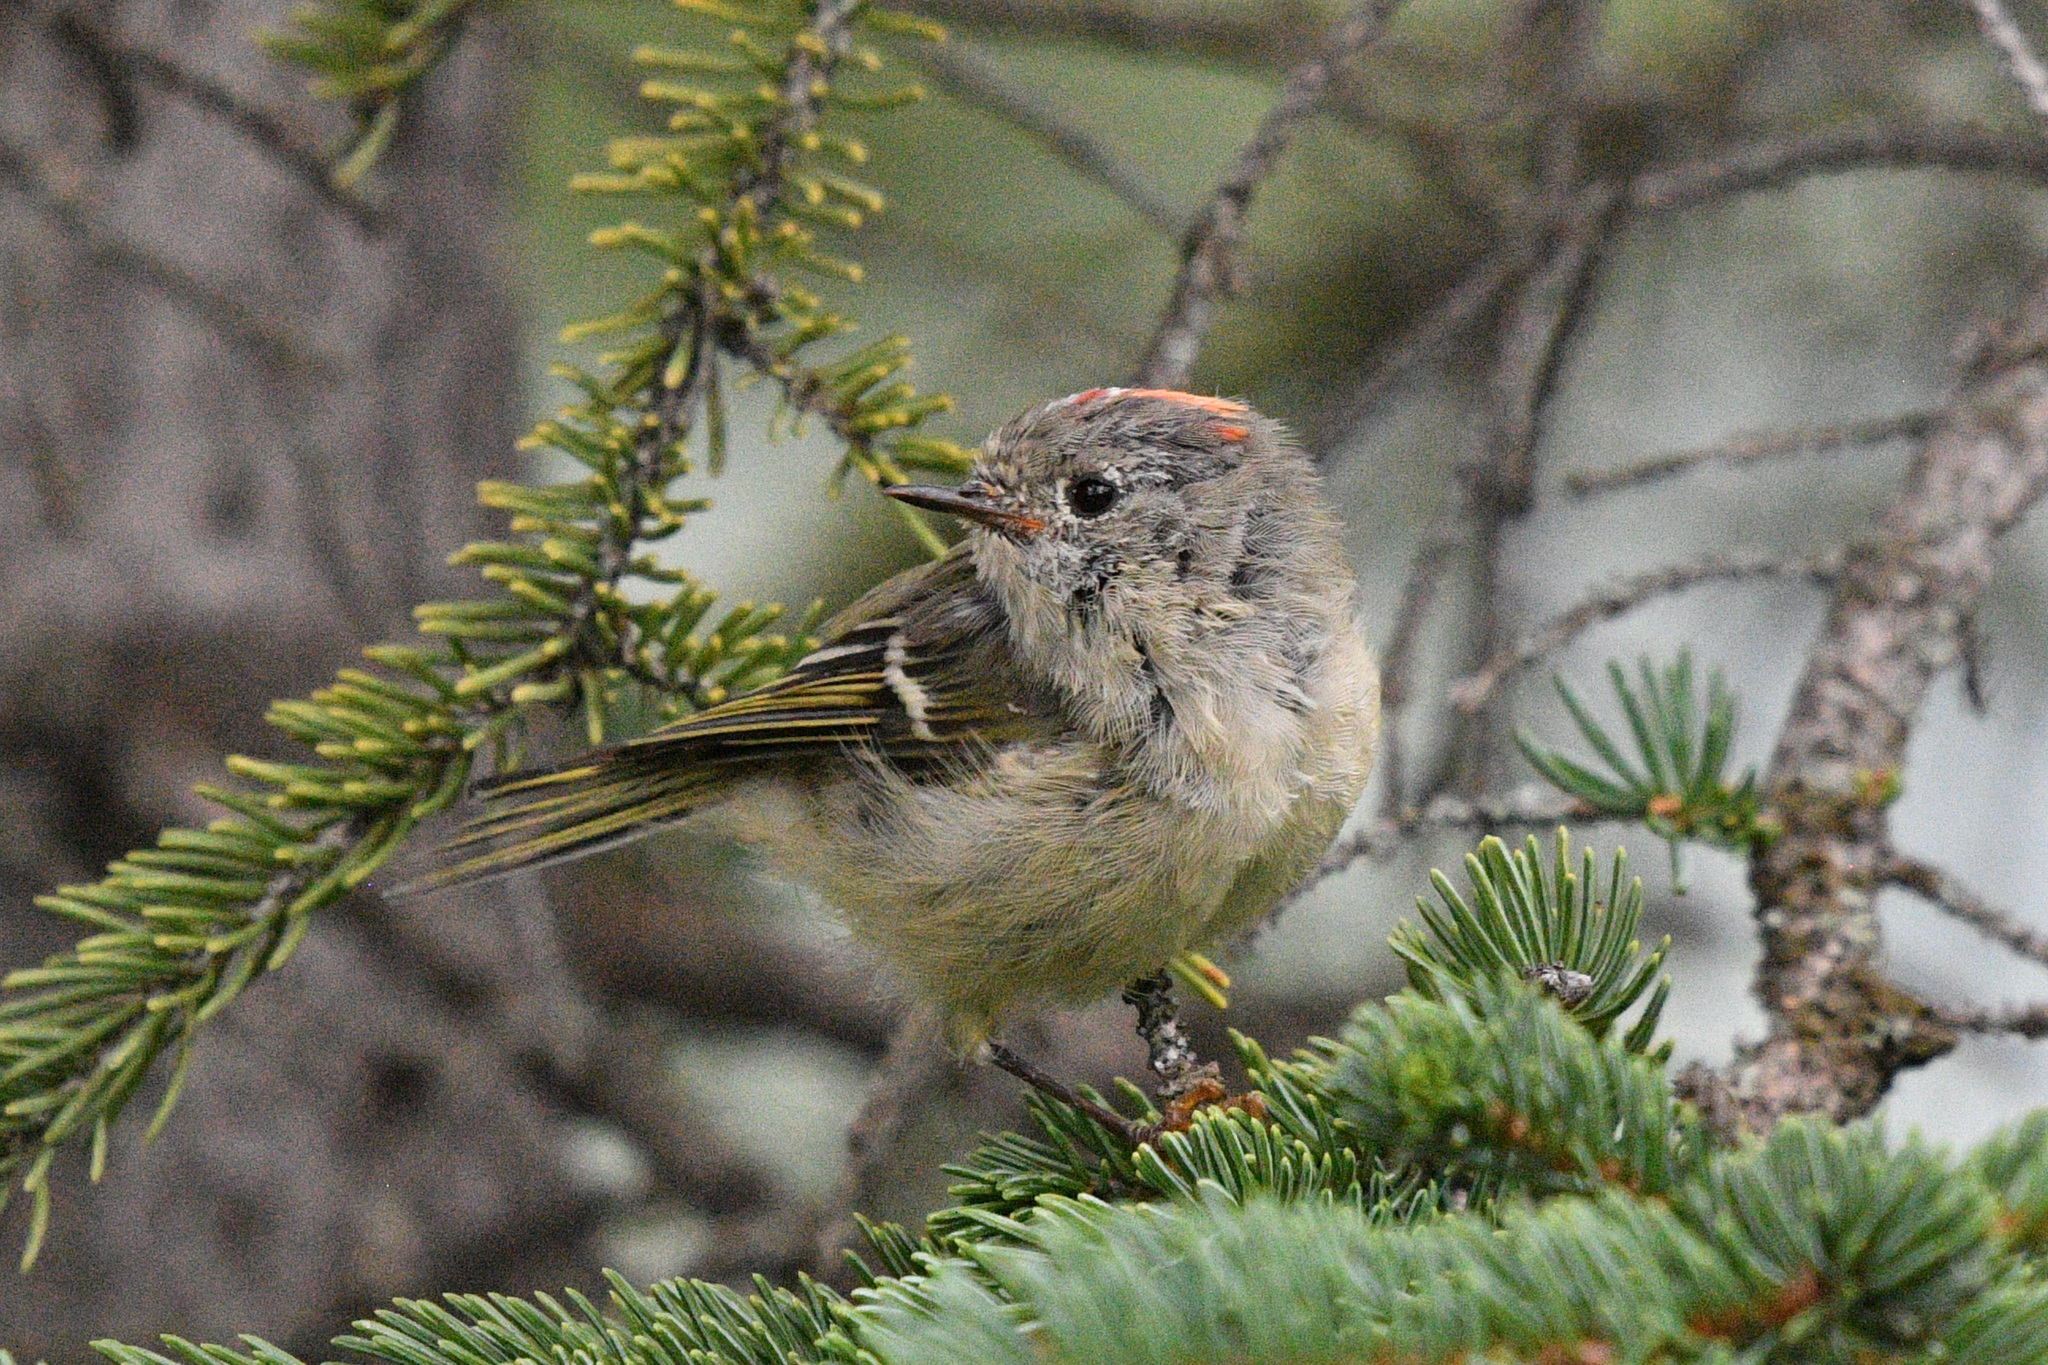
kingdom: Animalia
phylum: Chordata
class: Aves
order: Passeriformes
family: Regulidae
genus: Regulus
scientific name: Regulus calendula
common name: Ruby-crowned kinglet
